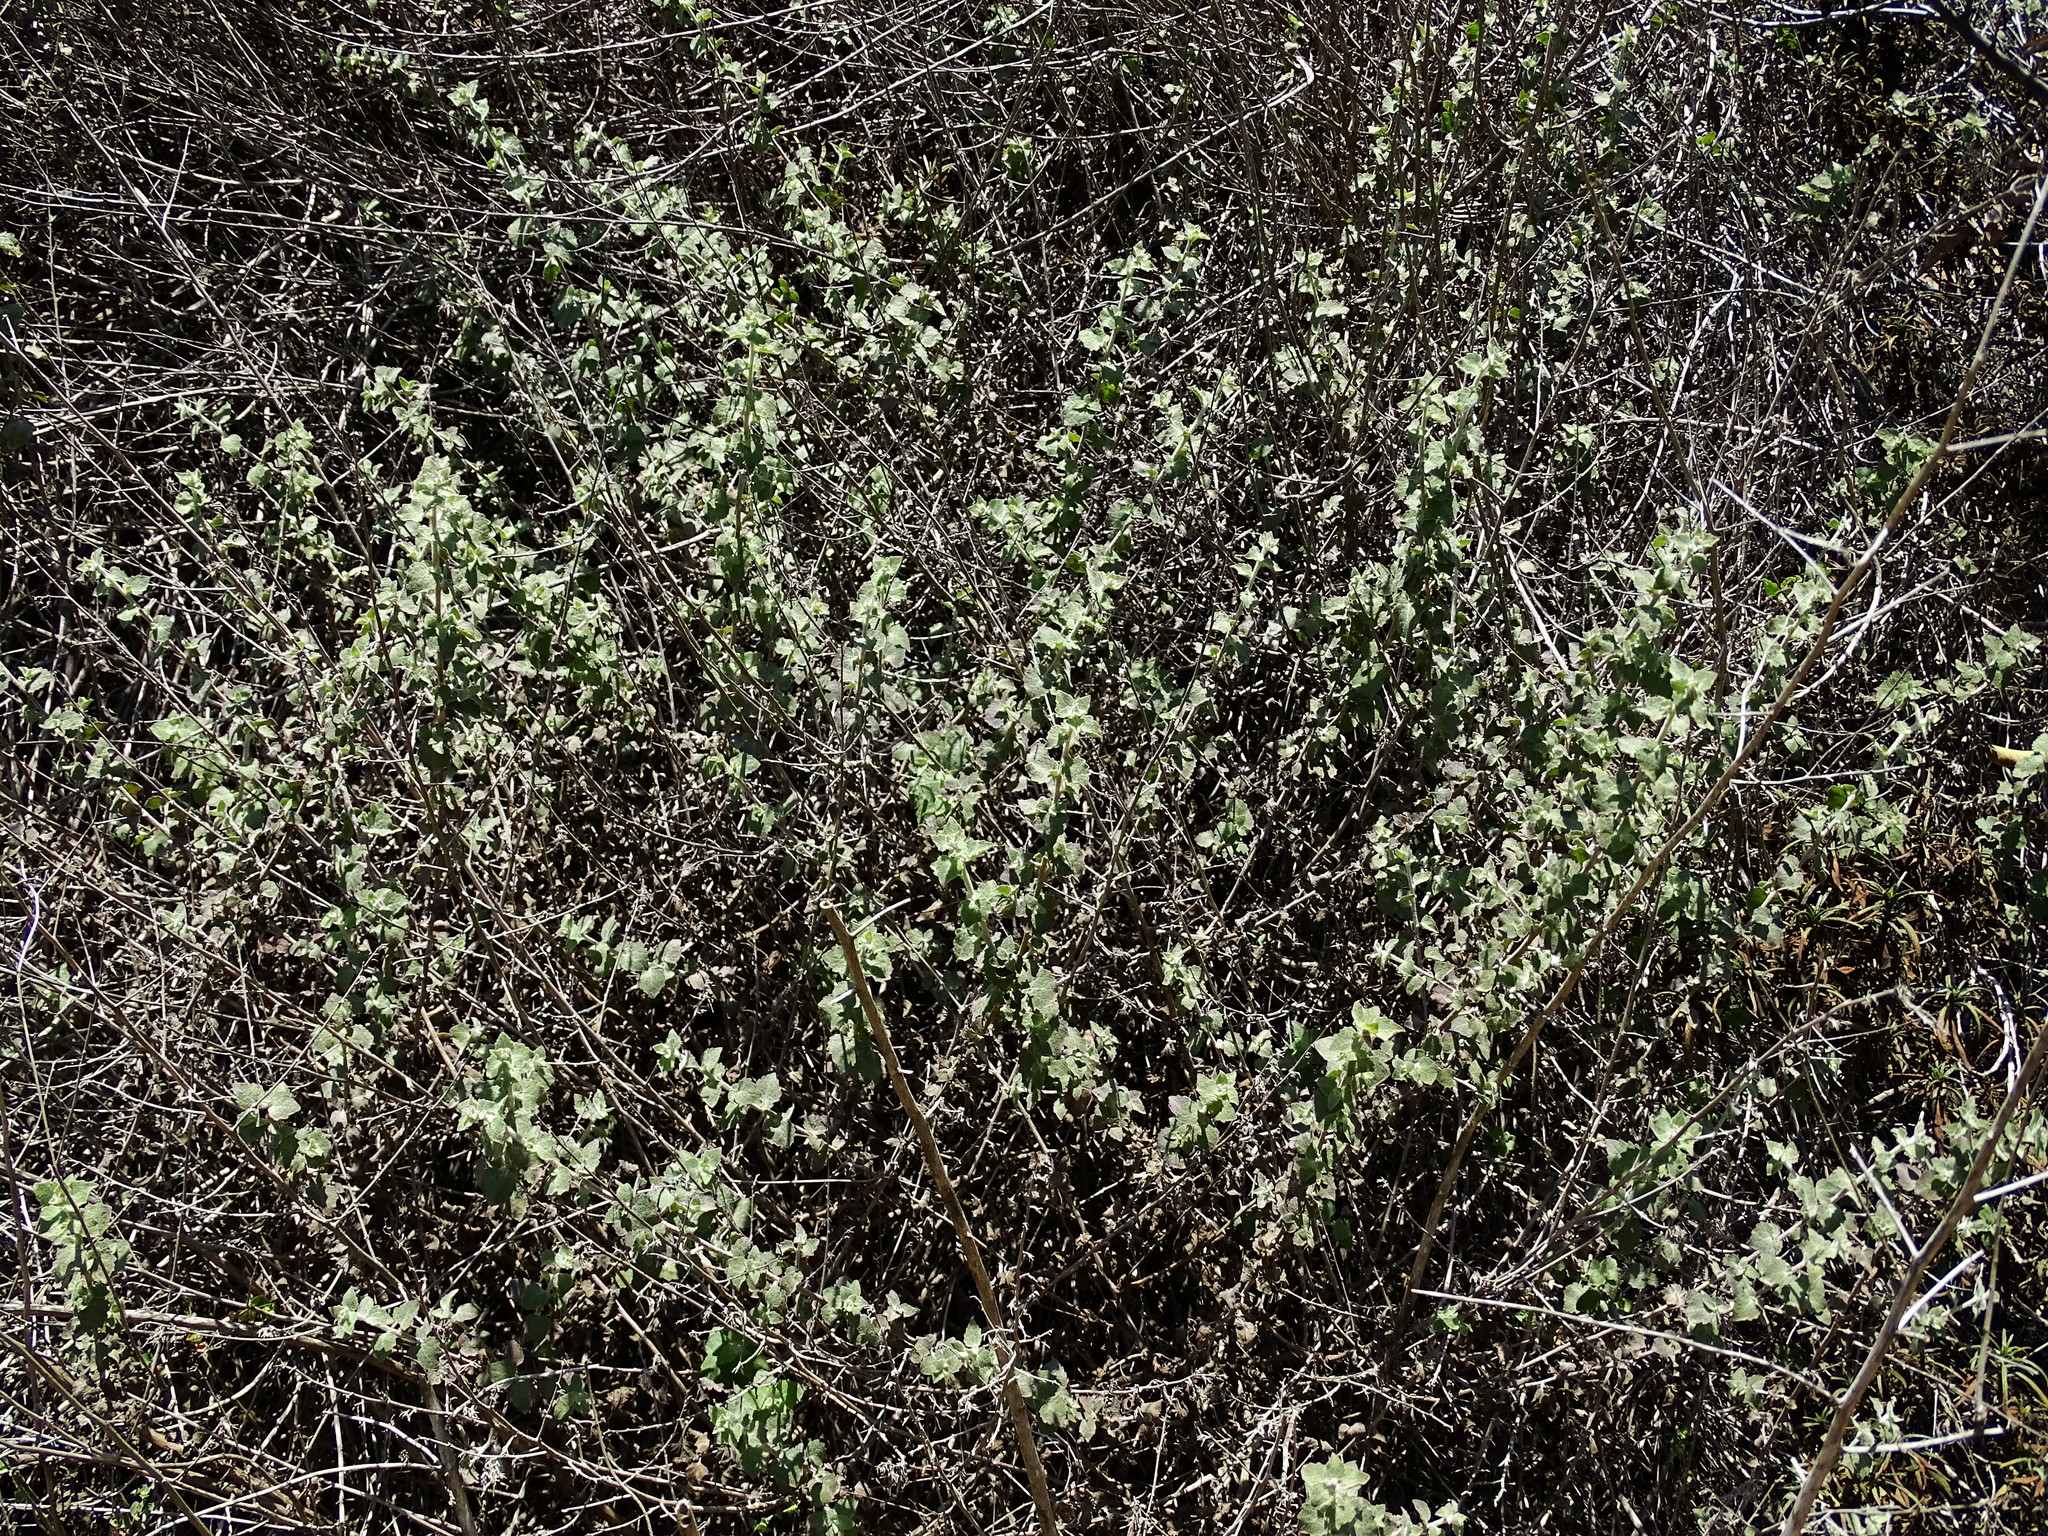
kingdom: Plantae
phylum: Tracheophyta
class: Magnoliopsida
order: Asterales
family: Asteraceae
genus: Brickellia
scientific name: Brickellia californica
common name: California brickellbush
